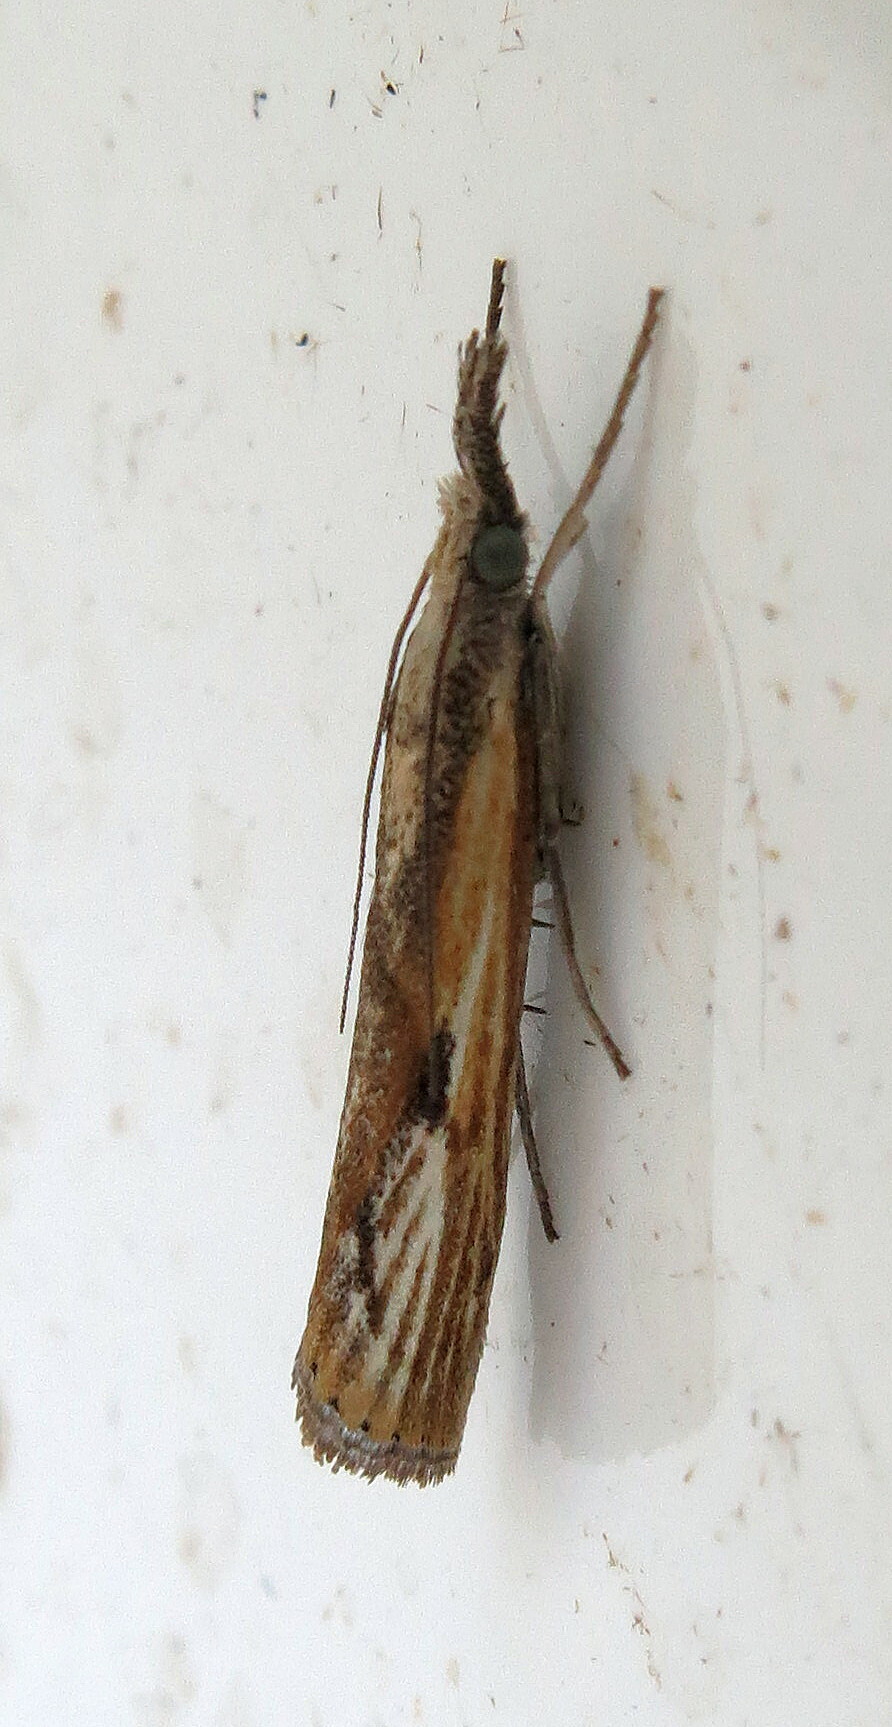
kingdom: Animalia
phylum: Arthropoda
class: Insecta
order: Lepidoptera
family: Crambidae
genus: Agriphila
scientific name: Agriphila inquinatella
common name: Barred grass-veneer
